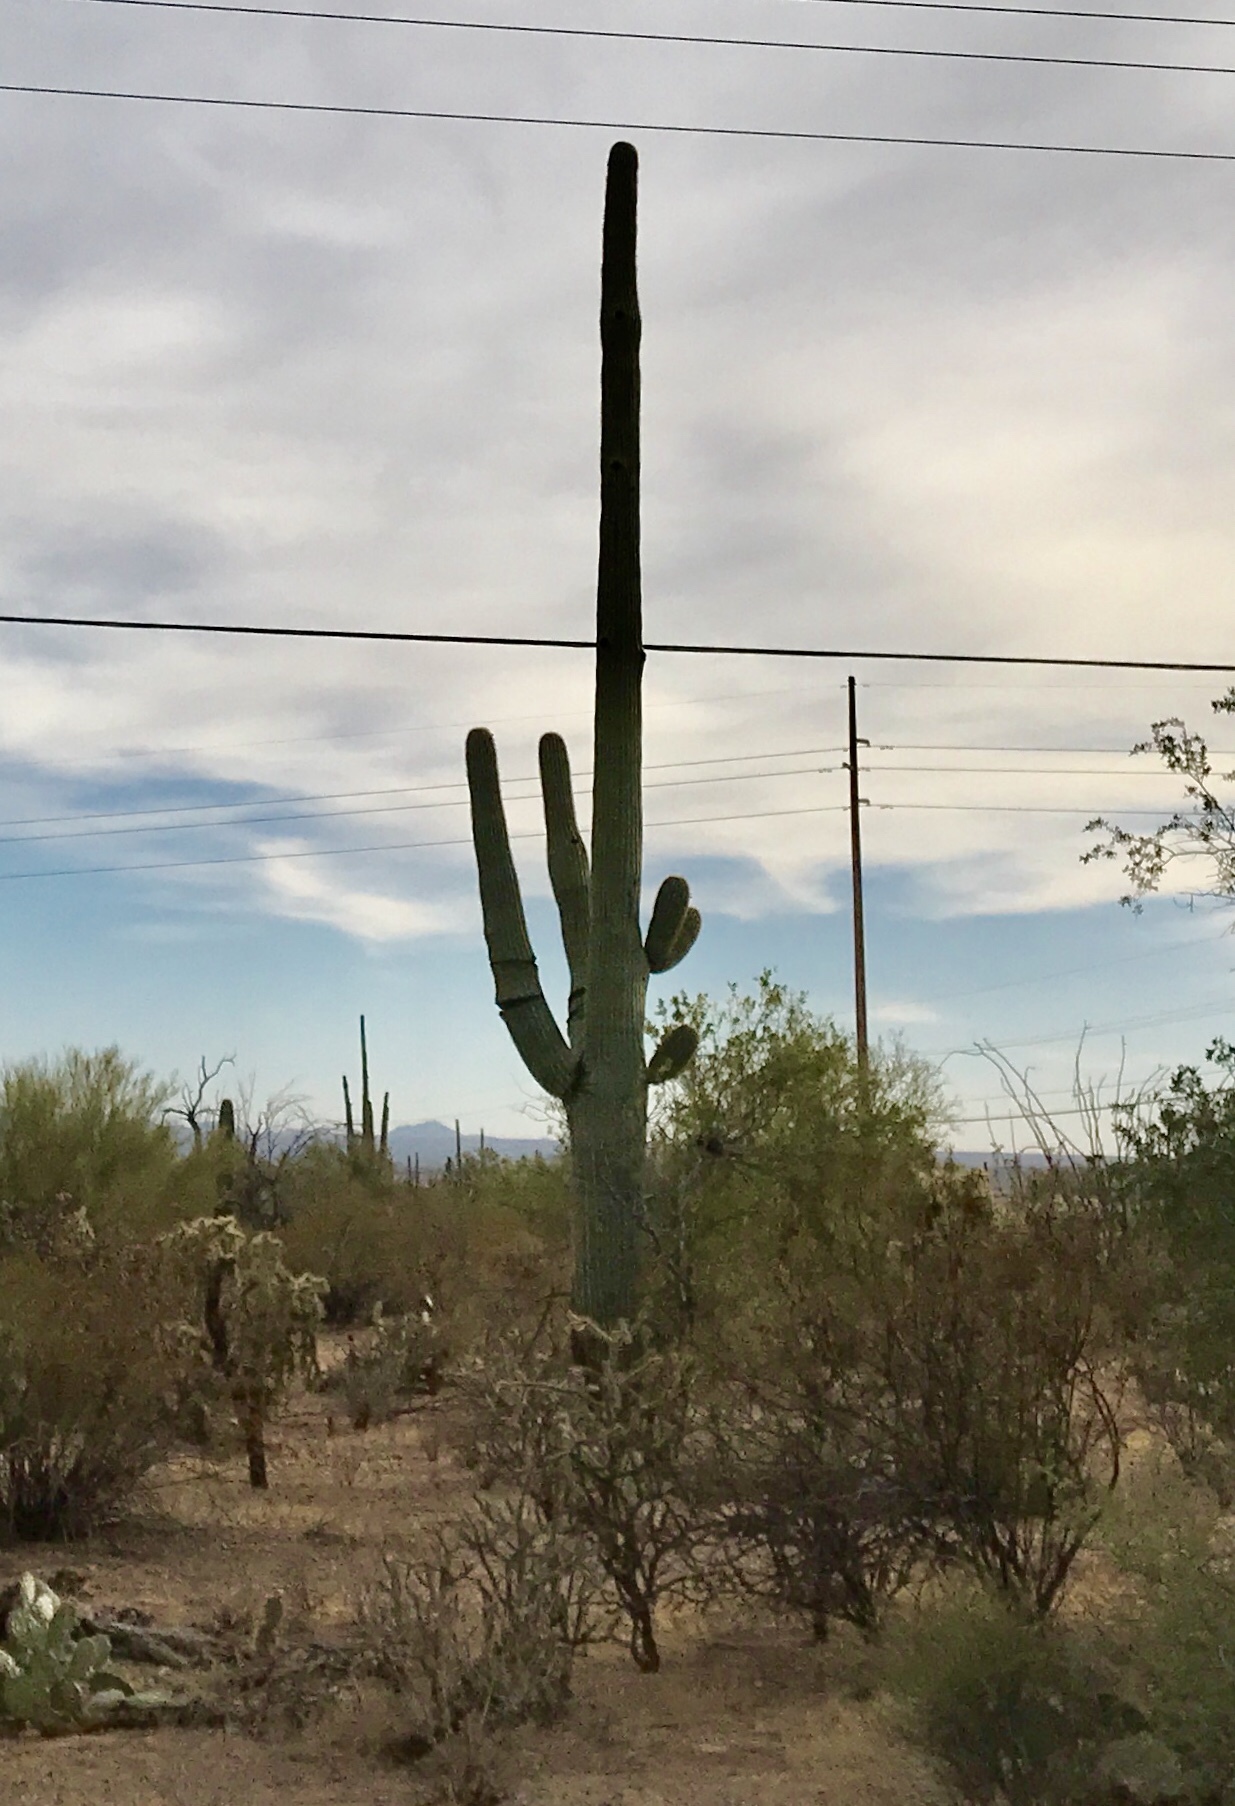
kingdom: Plantae
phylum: Tracheophyta
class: Magnoliopsida
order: Caryophyllales
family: Cactaceae
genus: Carnegiea
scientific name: Carnegiea gigantea
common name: Saguaro
